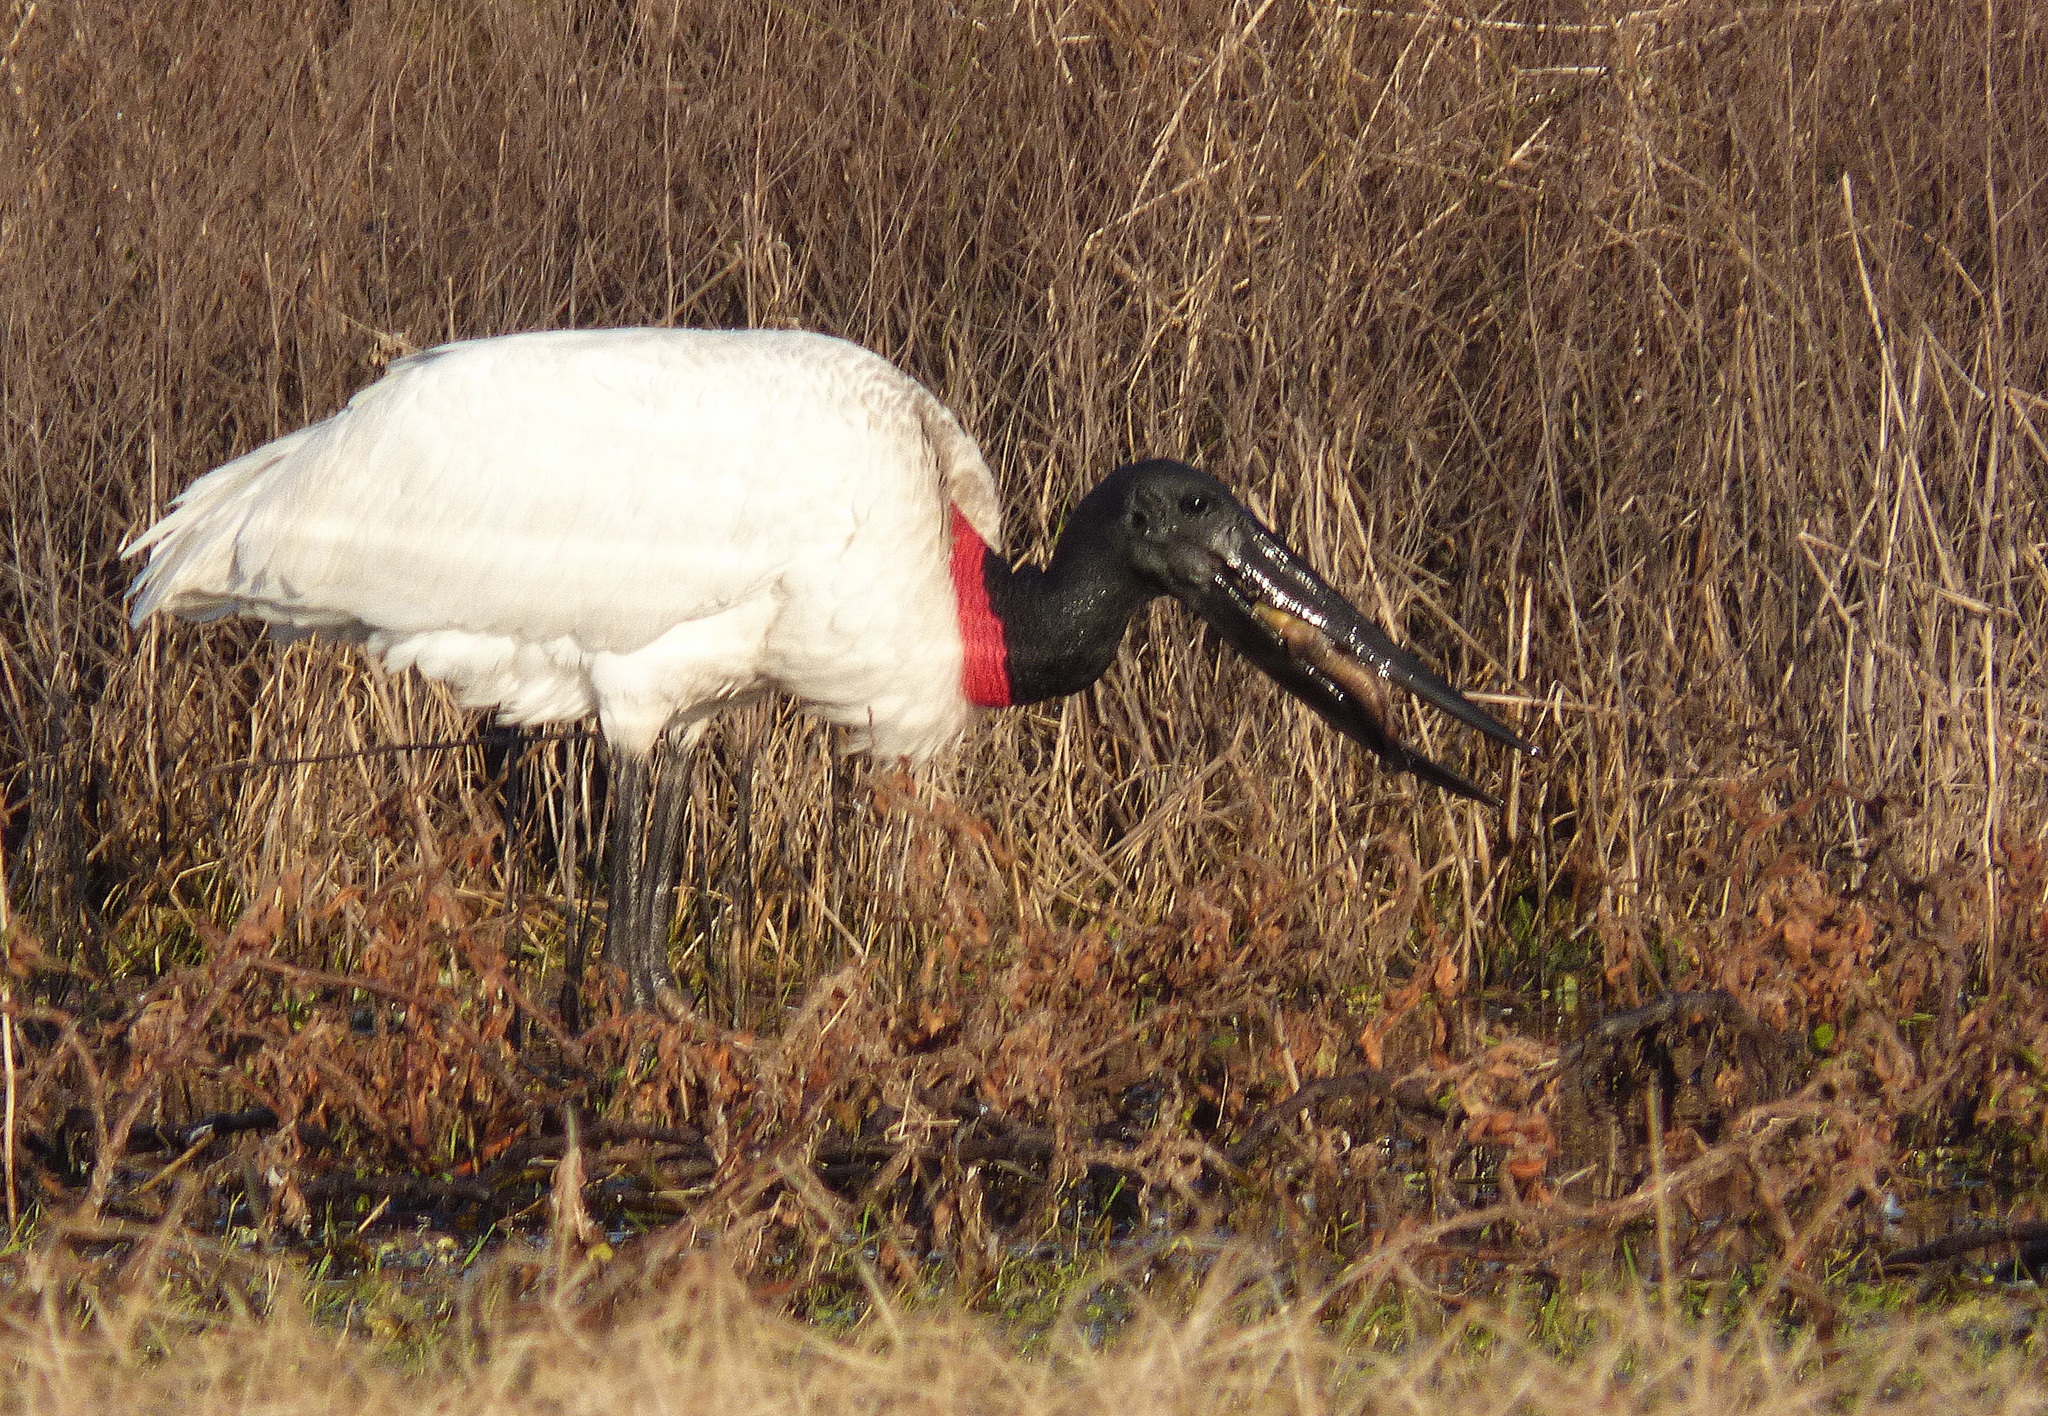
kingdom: Animalia
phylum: Chordata
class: Aves
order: Ciconiiformes
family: Ciconiidae
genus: Jabiru
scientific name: Jabiru mycteria
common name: Jabiru
